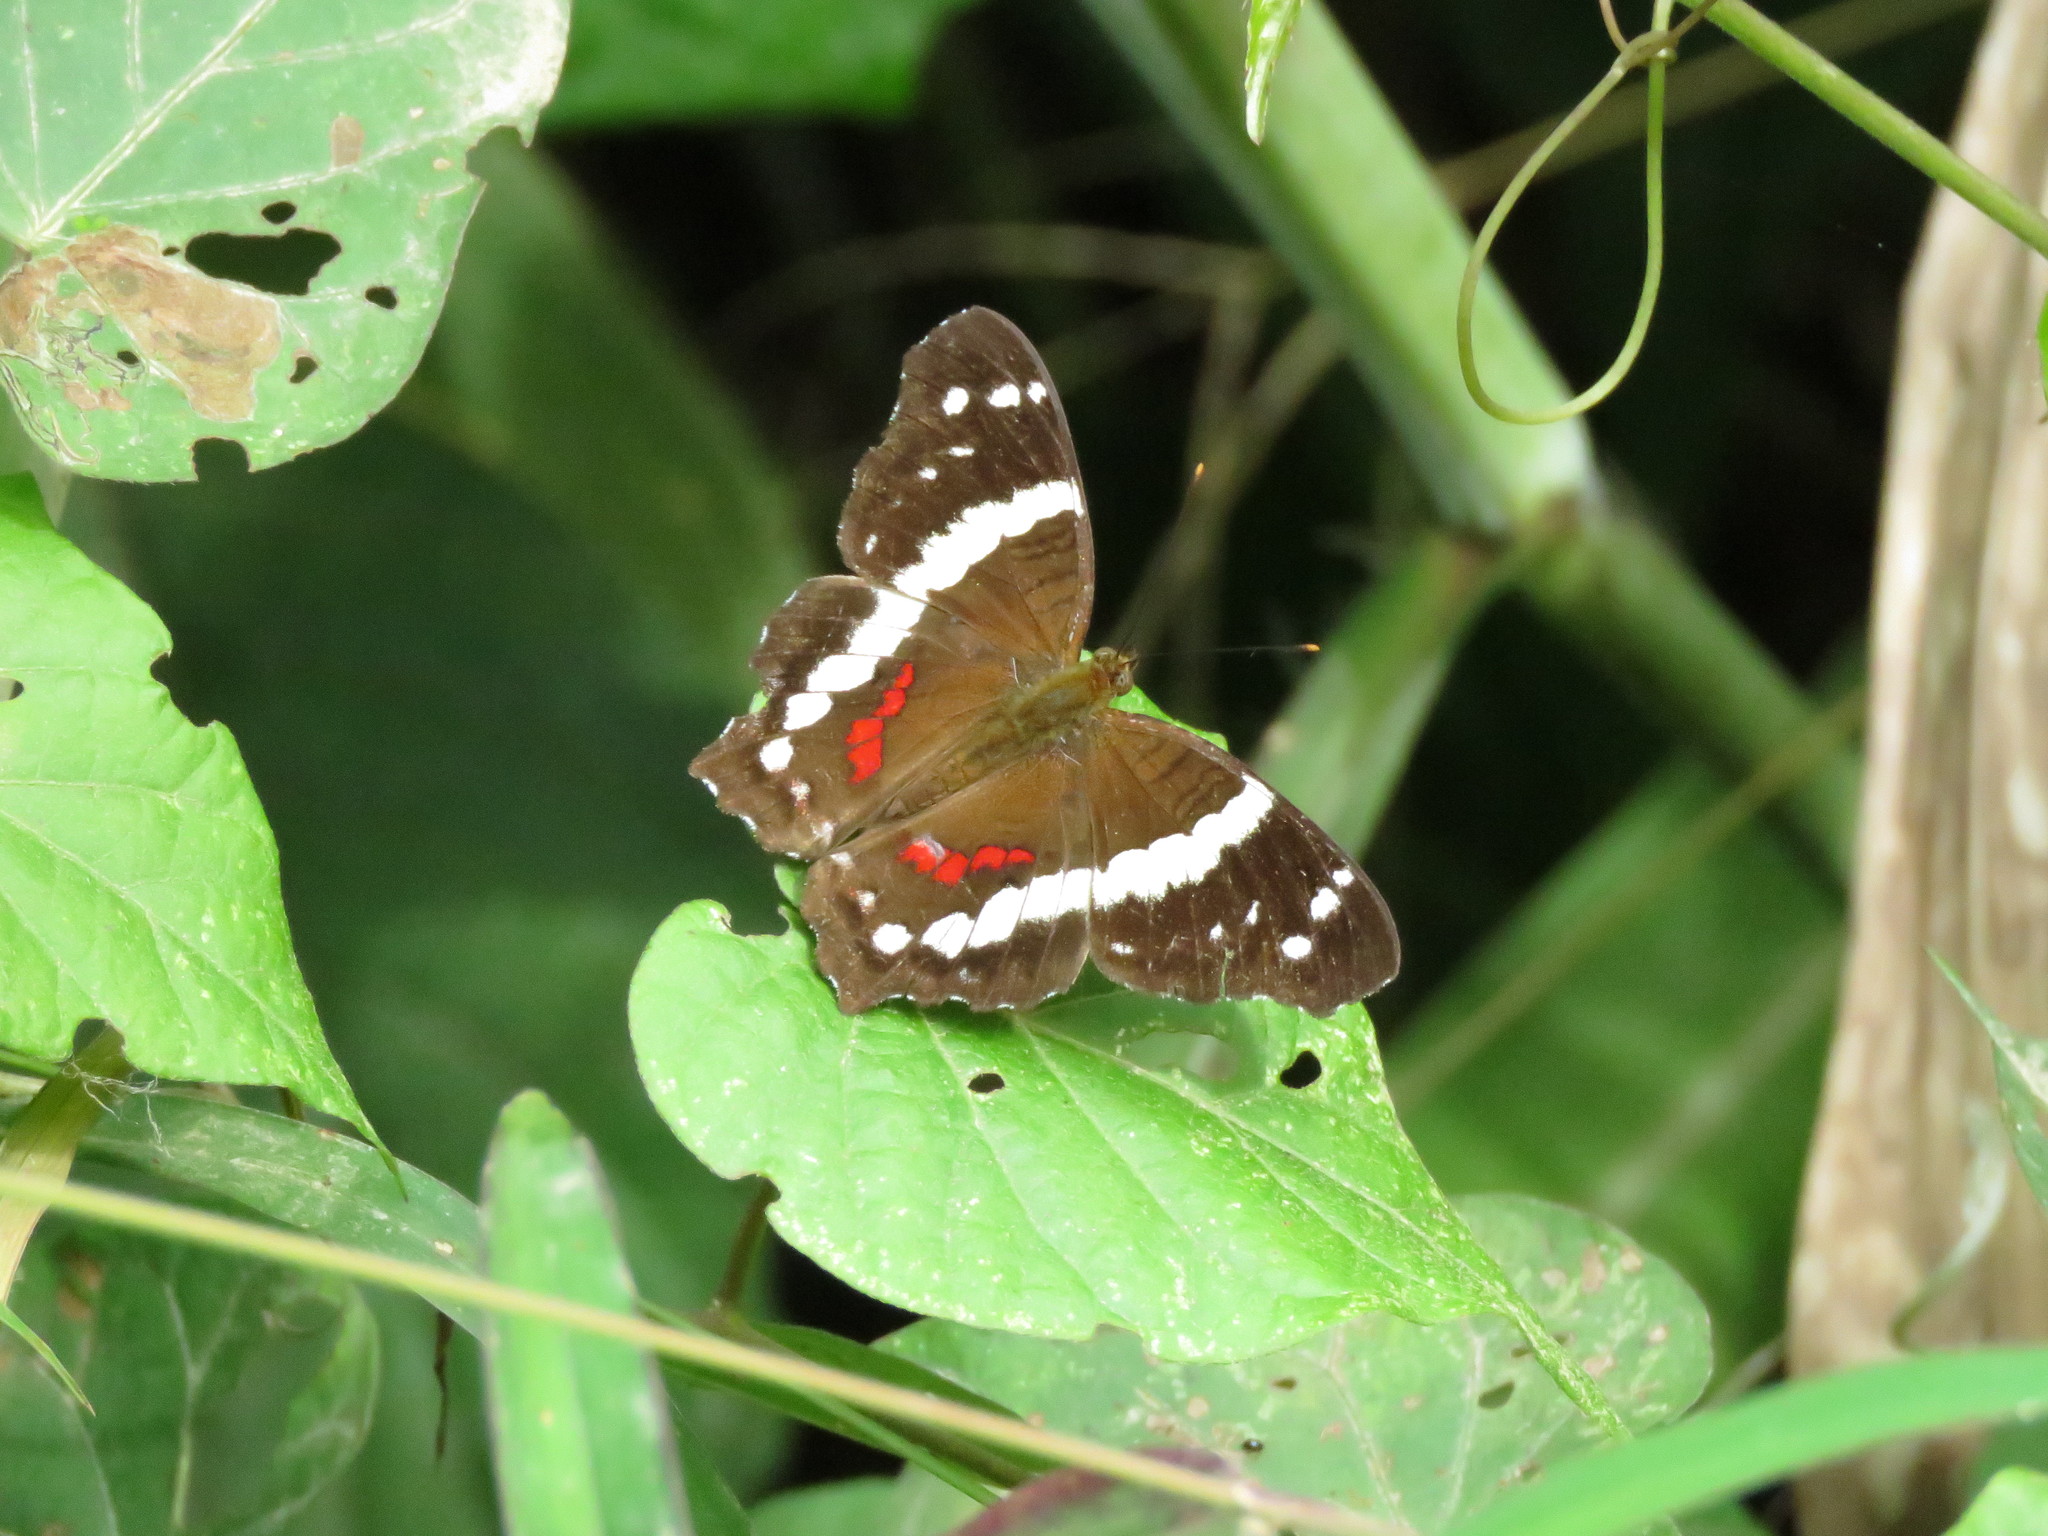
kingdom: Animalia
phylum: Arthropoda
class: Insecta
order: Lepidoptera
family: Nymphalidae
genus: Anartia
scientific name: Anartia fatima
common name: Banded peacock
